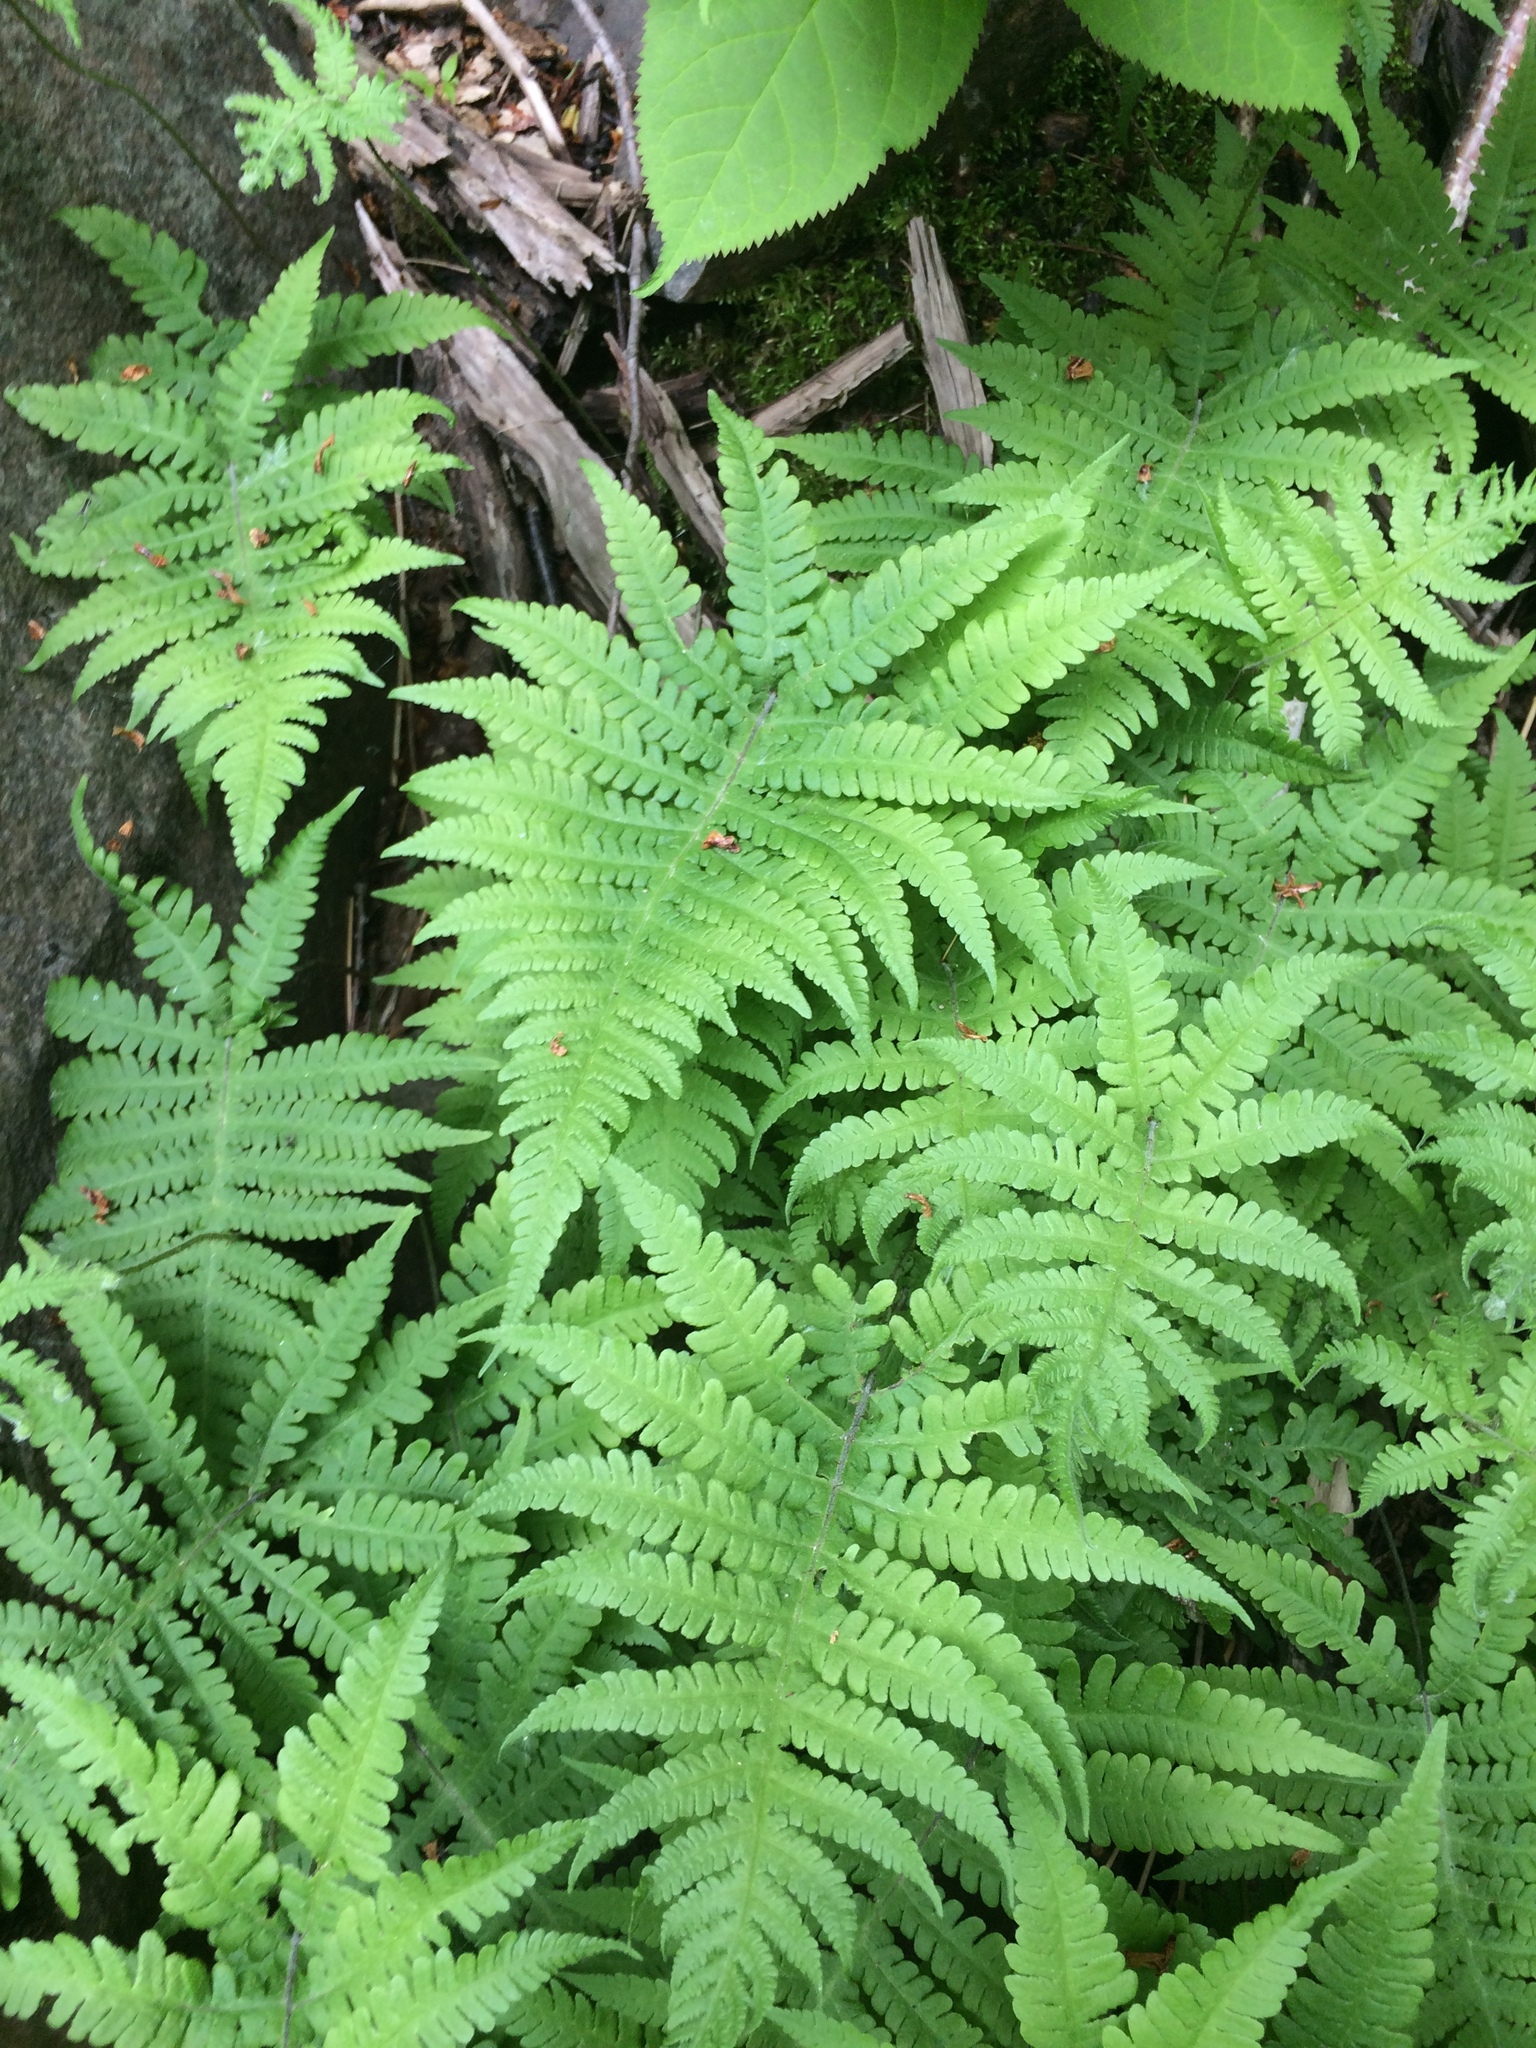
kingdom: Plantae
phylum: Tracheophyta
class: Polypodiopsida
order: Polypodiales
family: Thelypteridaceae
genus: Phegopteris
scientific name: Phegopteris connectilis
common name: Beech fern
